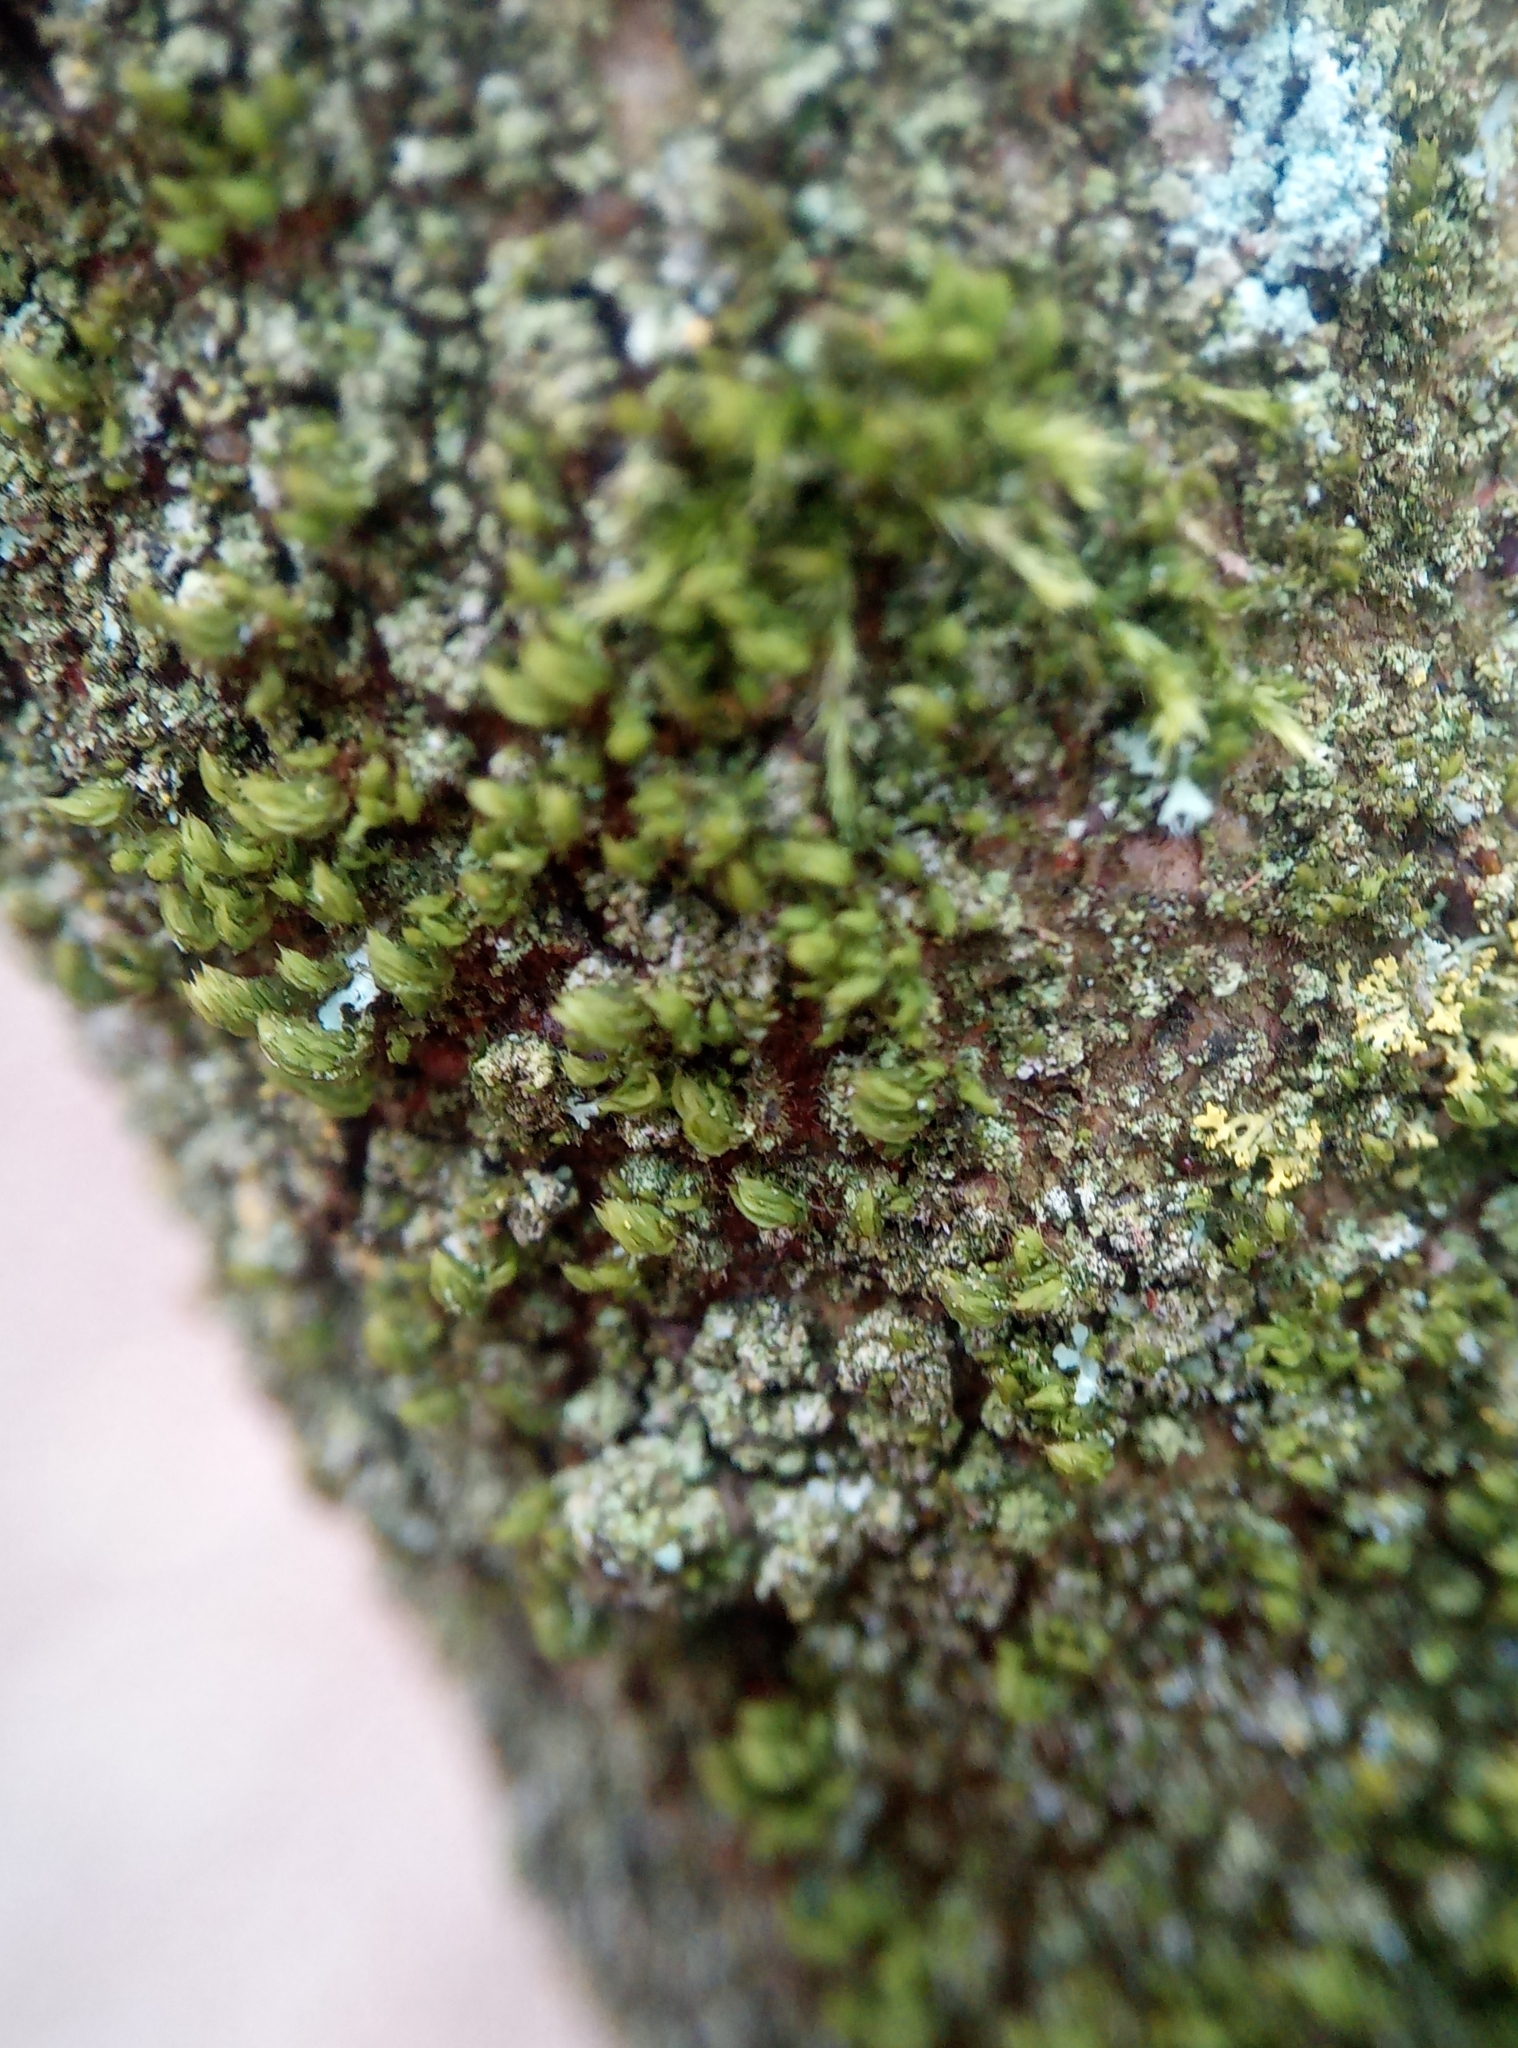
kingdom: Plantae
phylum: Bryophyta
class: Bryopsida
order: Orthotrichales
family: Orthotrichaceae
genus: Zygodon
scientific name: Zygodon conoideus
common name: Lesser yoke-moss
